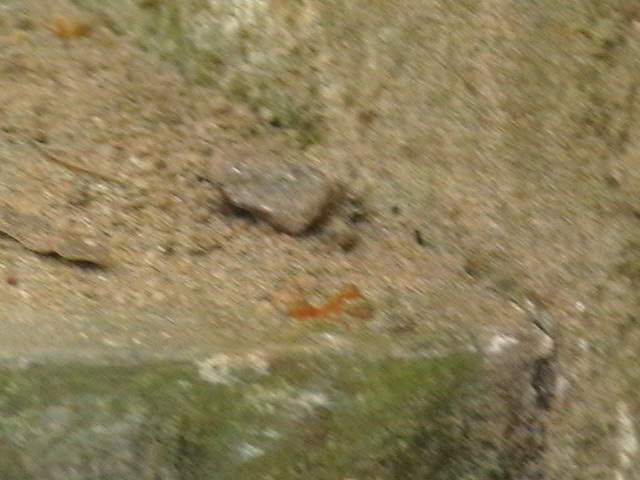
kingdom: Animalia
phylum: Arthropoda
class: Insecta
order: Hymenoptera
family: Formicidae
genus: Oecophylla
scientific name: Oecophylla smaragdina
